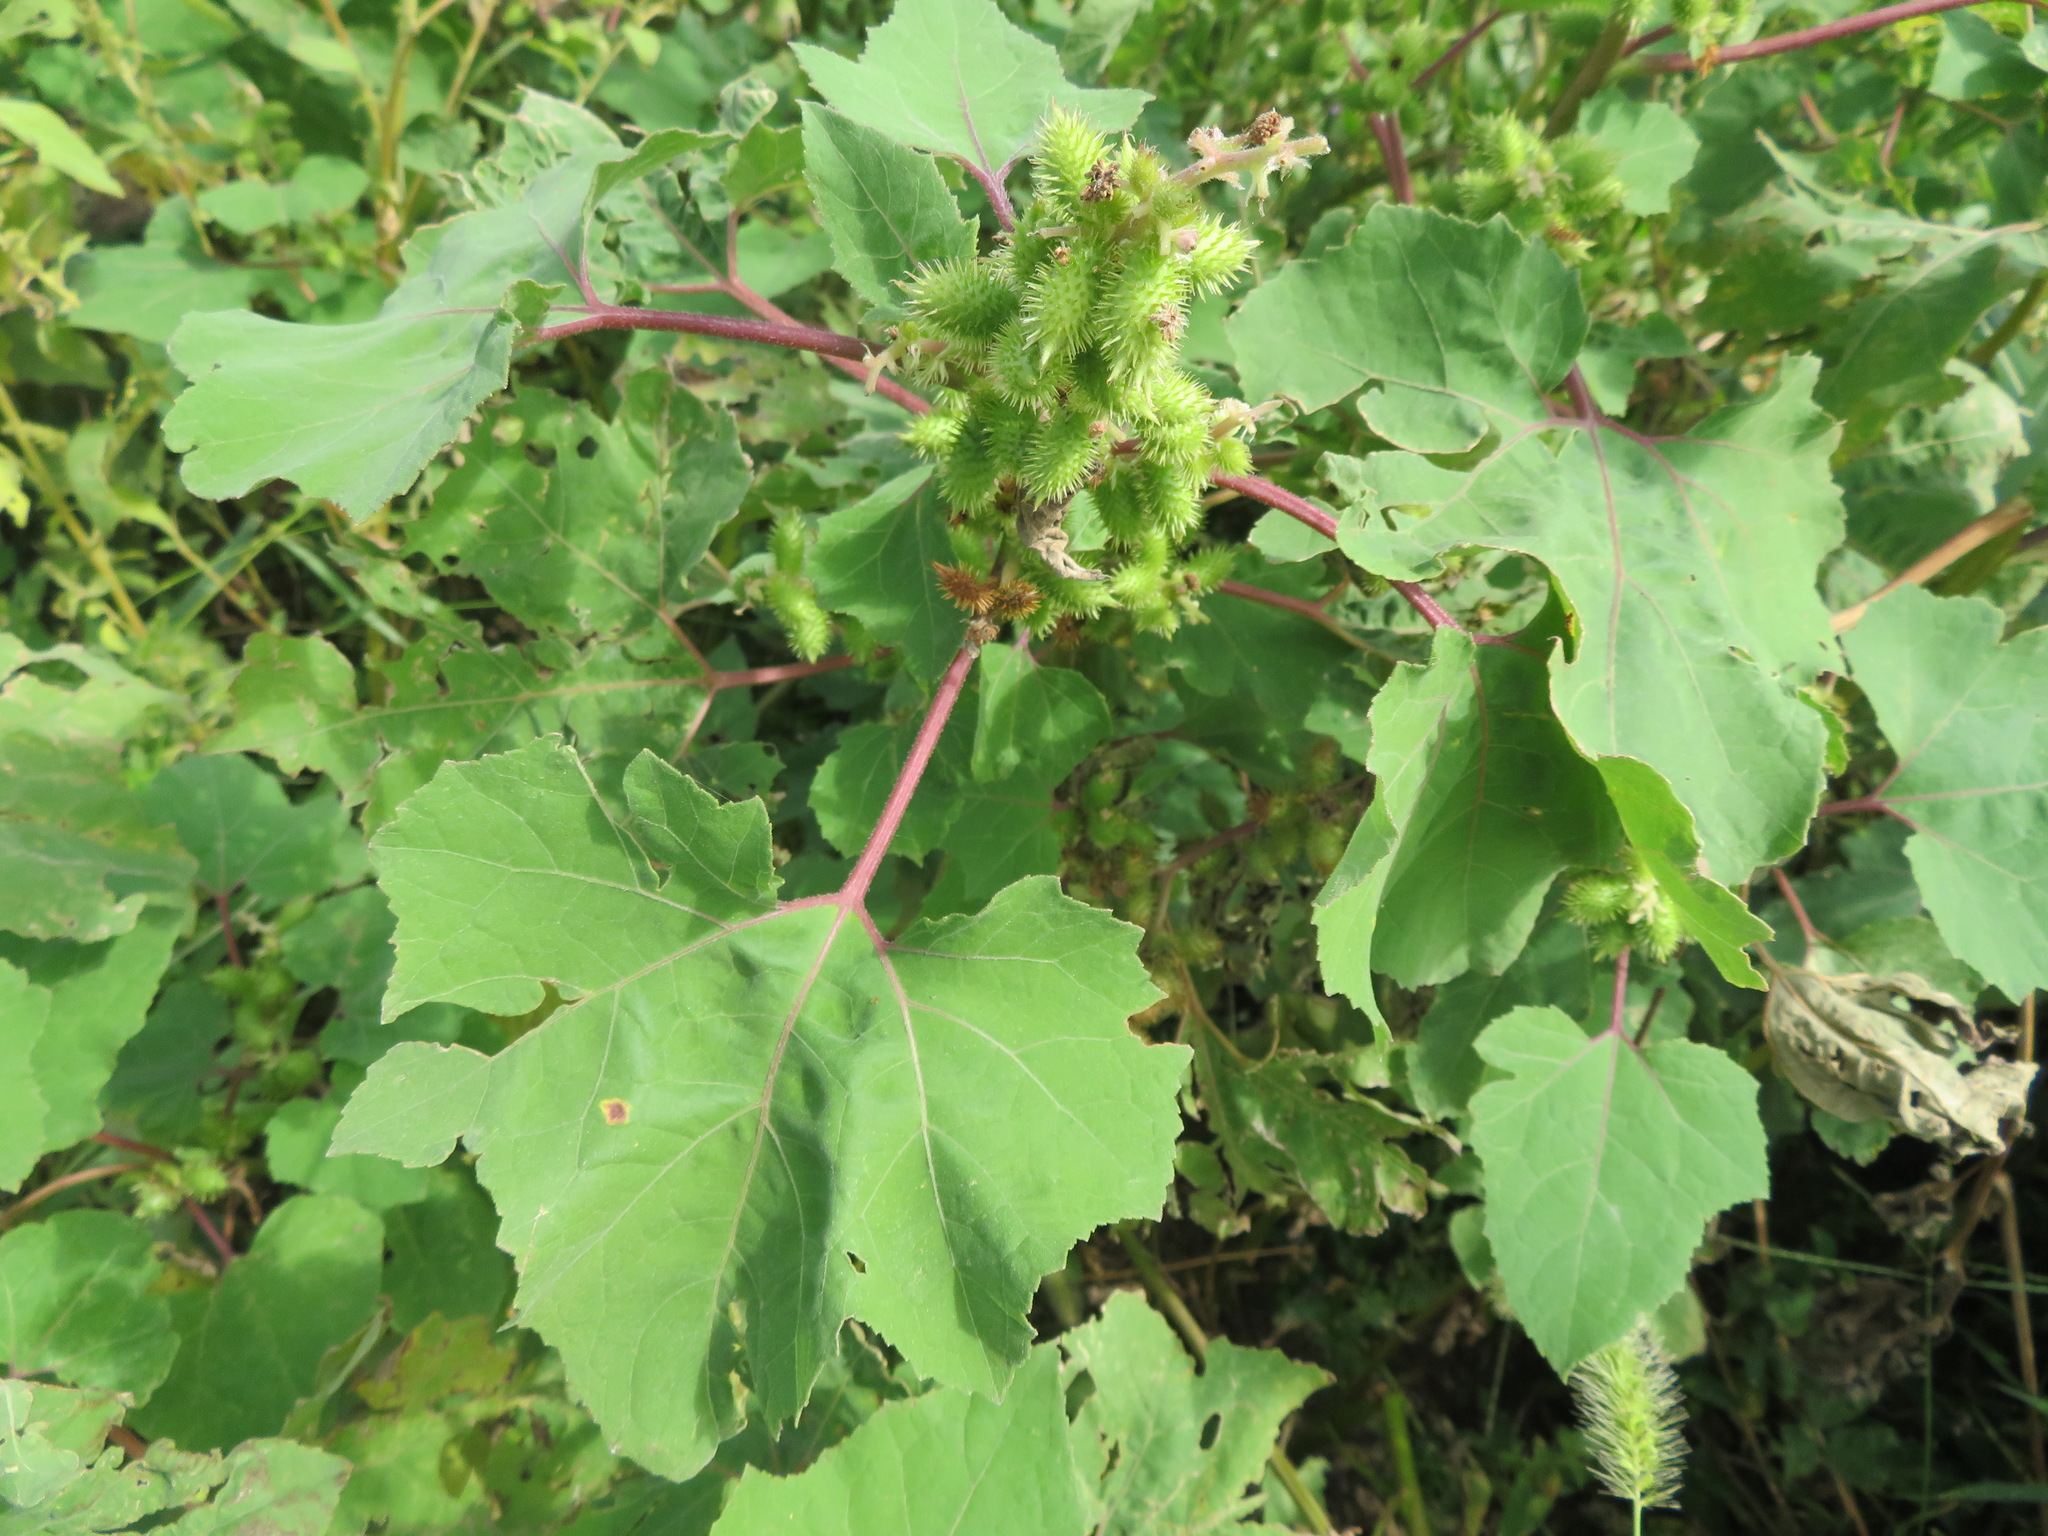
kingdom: Plantae
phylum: Tracheophyta
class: Magnoliopsida
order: Asterales
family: Asteraceae
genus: Xanthium
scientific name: Xanthium strumarium
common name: Rough cocklebur
